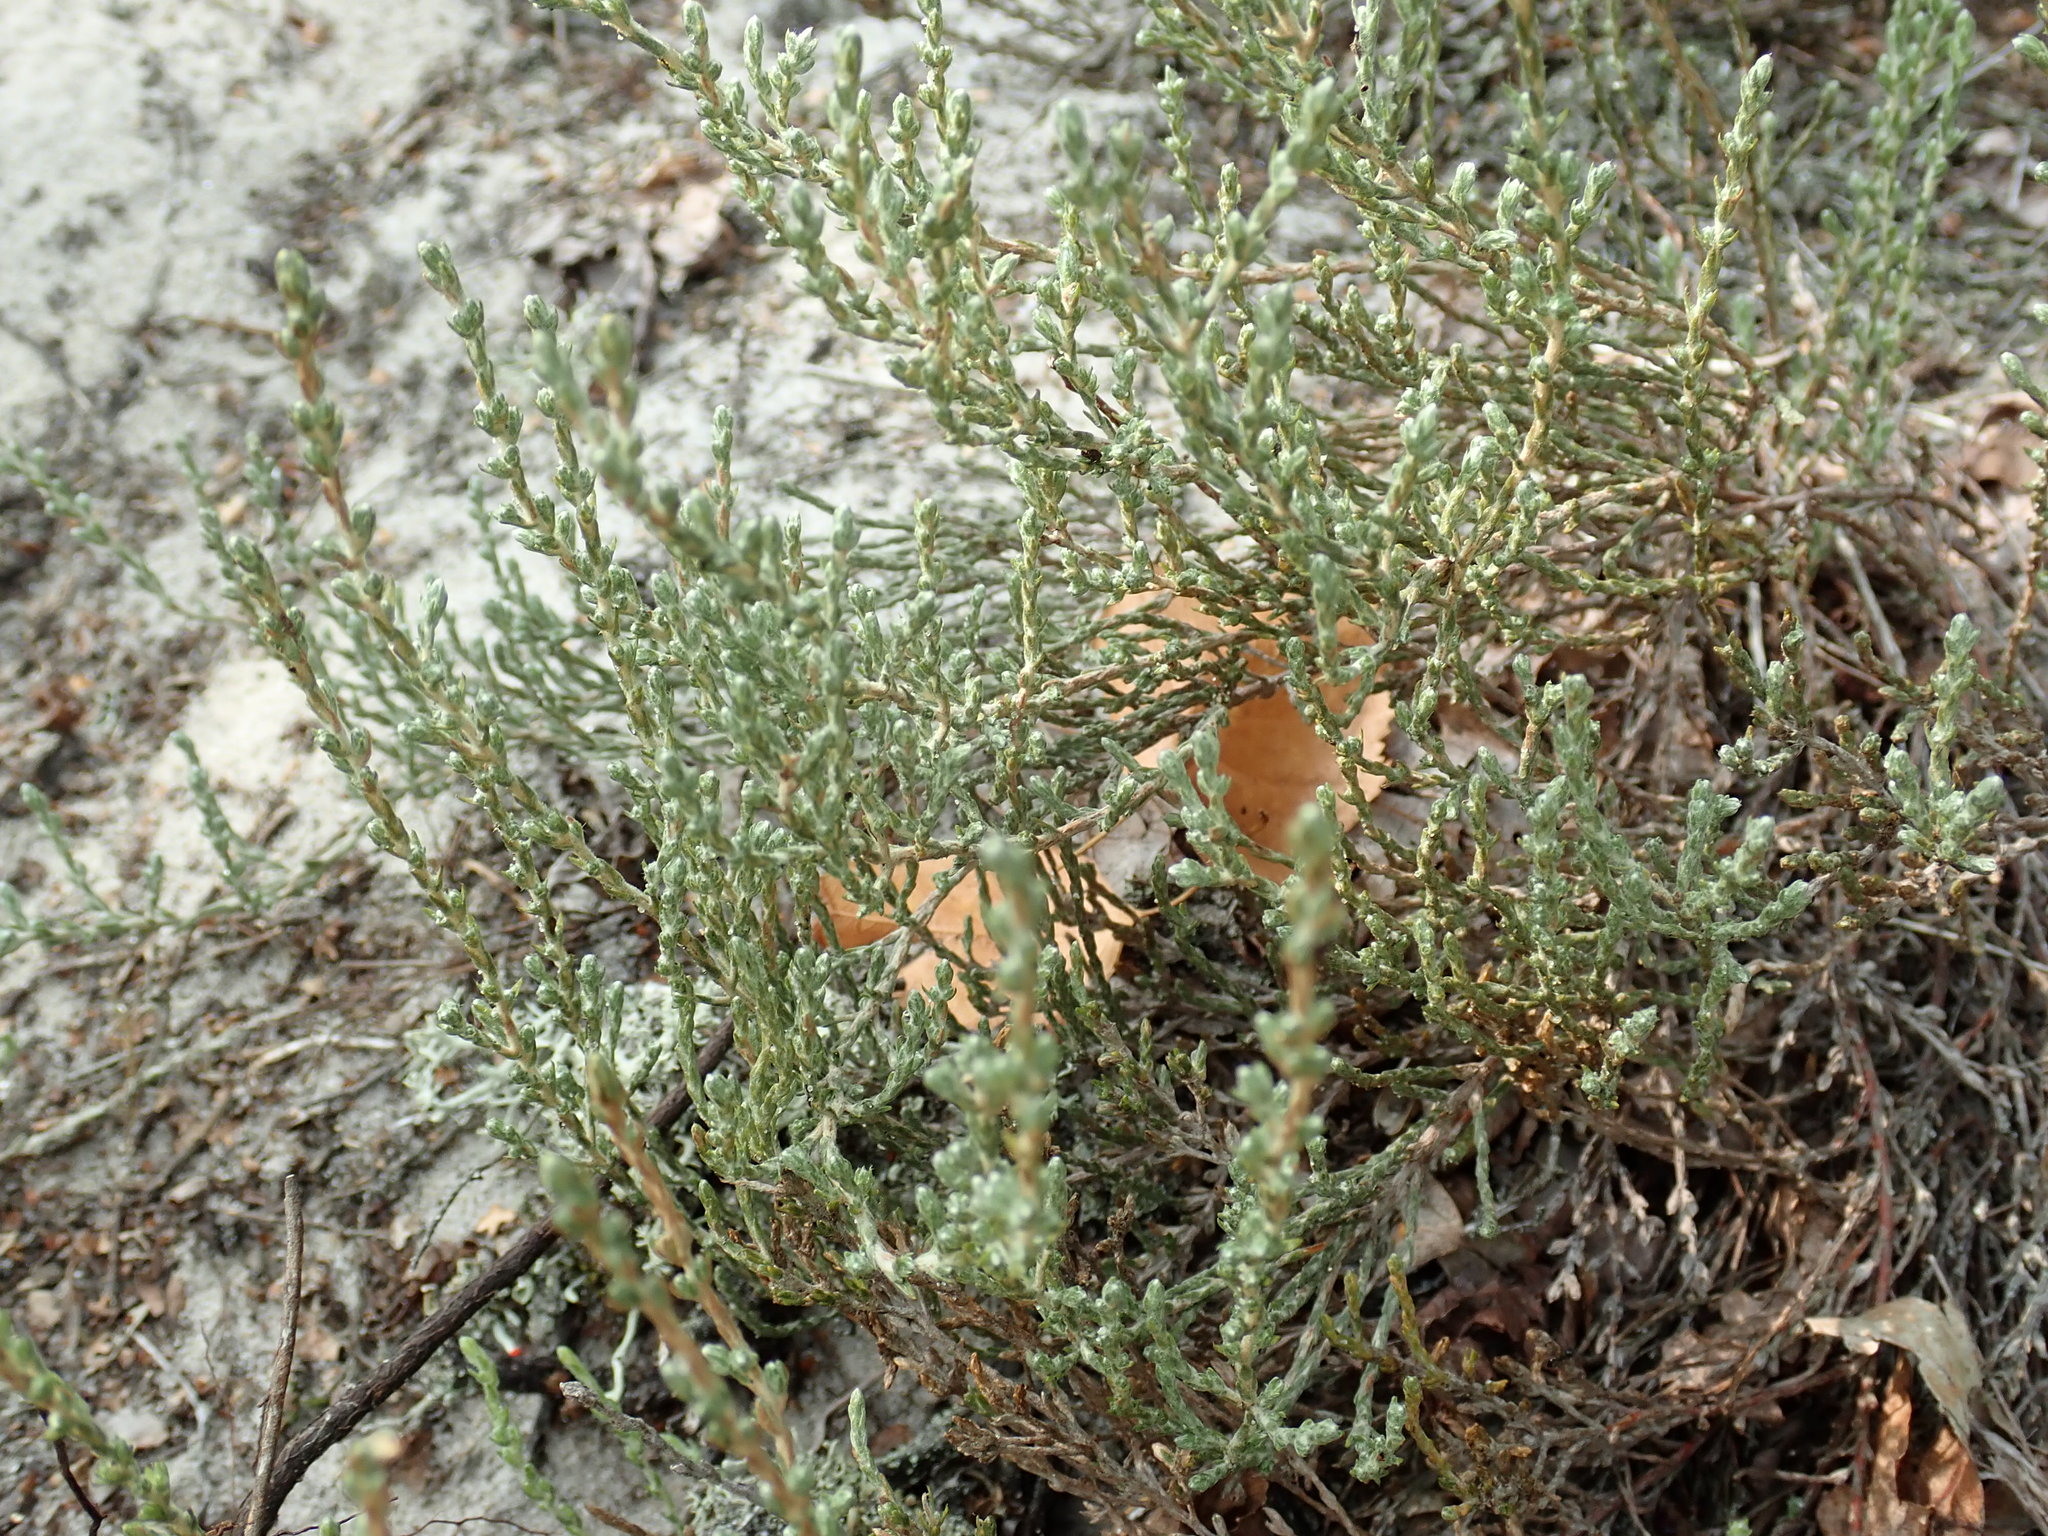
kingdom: Plantae
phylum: Tracheophyta
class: Magnoliopsida
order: Malvales
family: Cistaceae
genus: Hudsonia
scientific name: Hudsonia tomentosa
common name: Beach-heath
